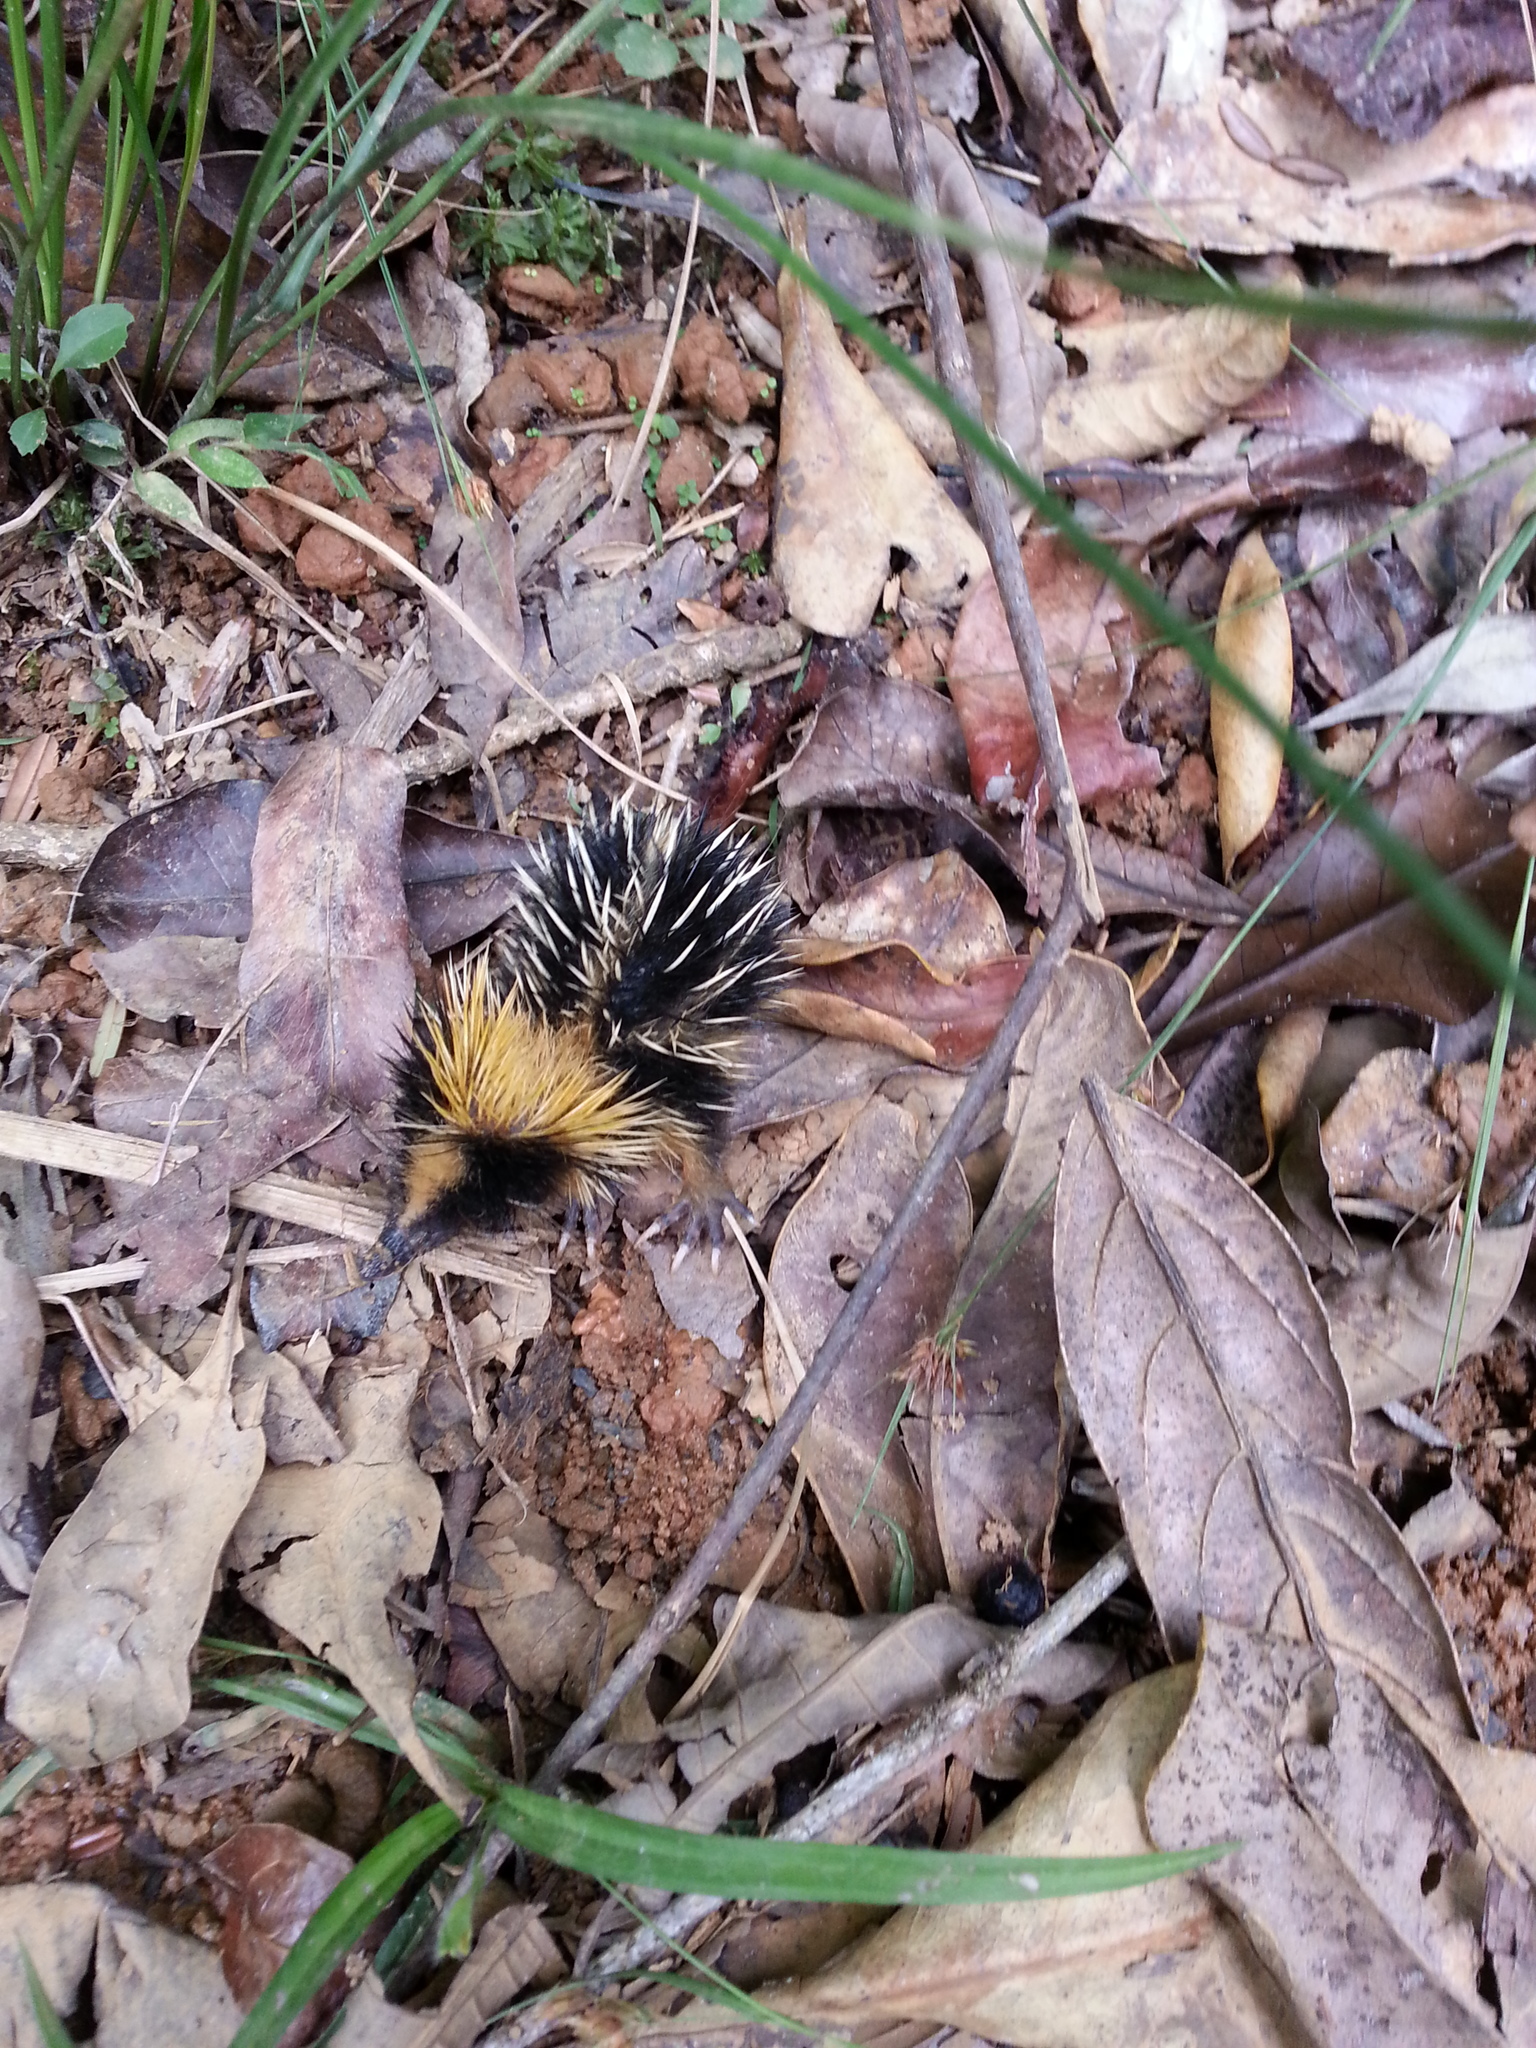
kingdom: Animalia
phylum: Chordata
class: Mammalia
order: Afrosoricida
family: Tenrecidae
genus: Hemicentetes
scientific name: Hemicentetes semispinosus
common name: Lowland streaked tenrec
